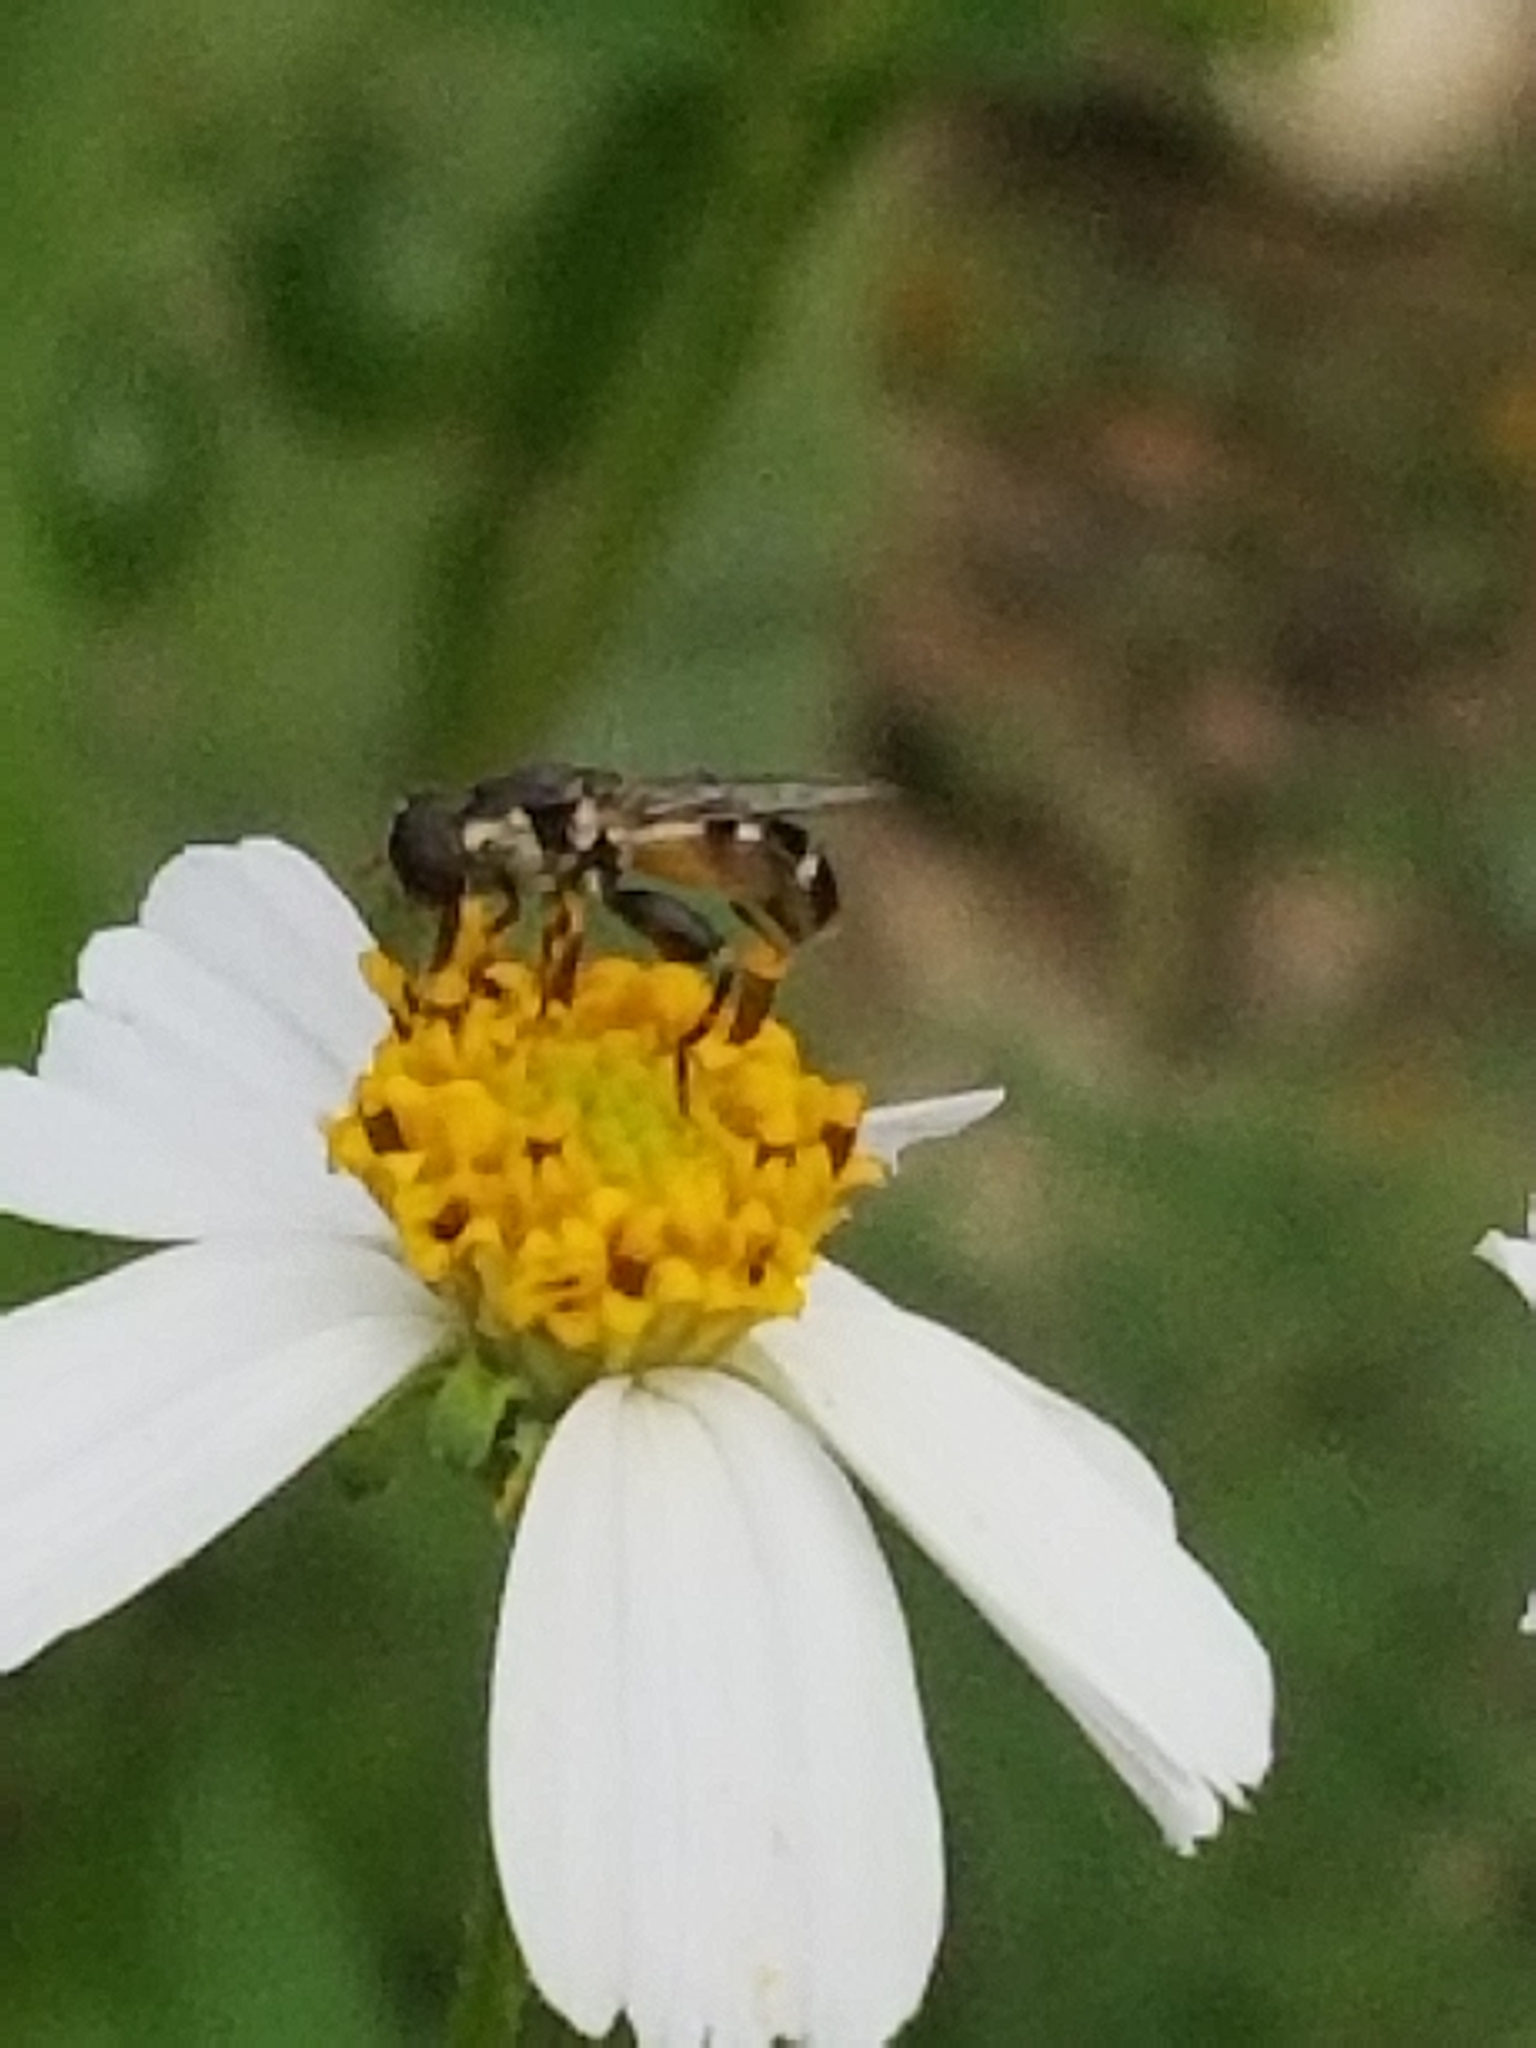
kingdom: Animalia
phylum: Arthropoda
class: Insecta
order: Diptera
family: Syrphidae
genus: Syritta
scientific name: Syritta pipiens
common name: Hover fly
